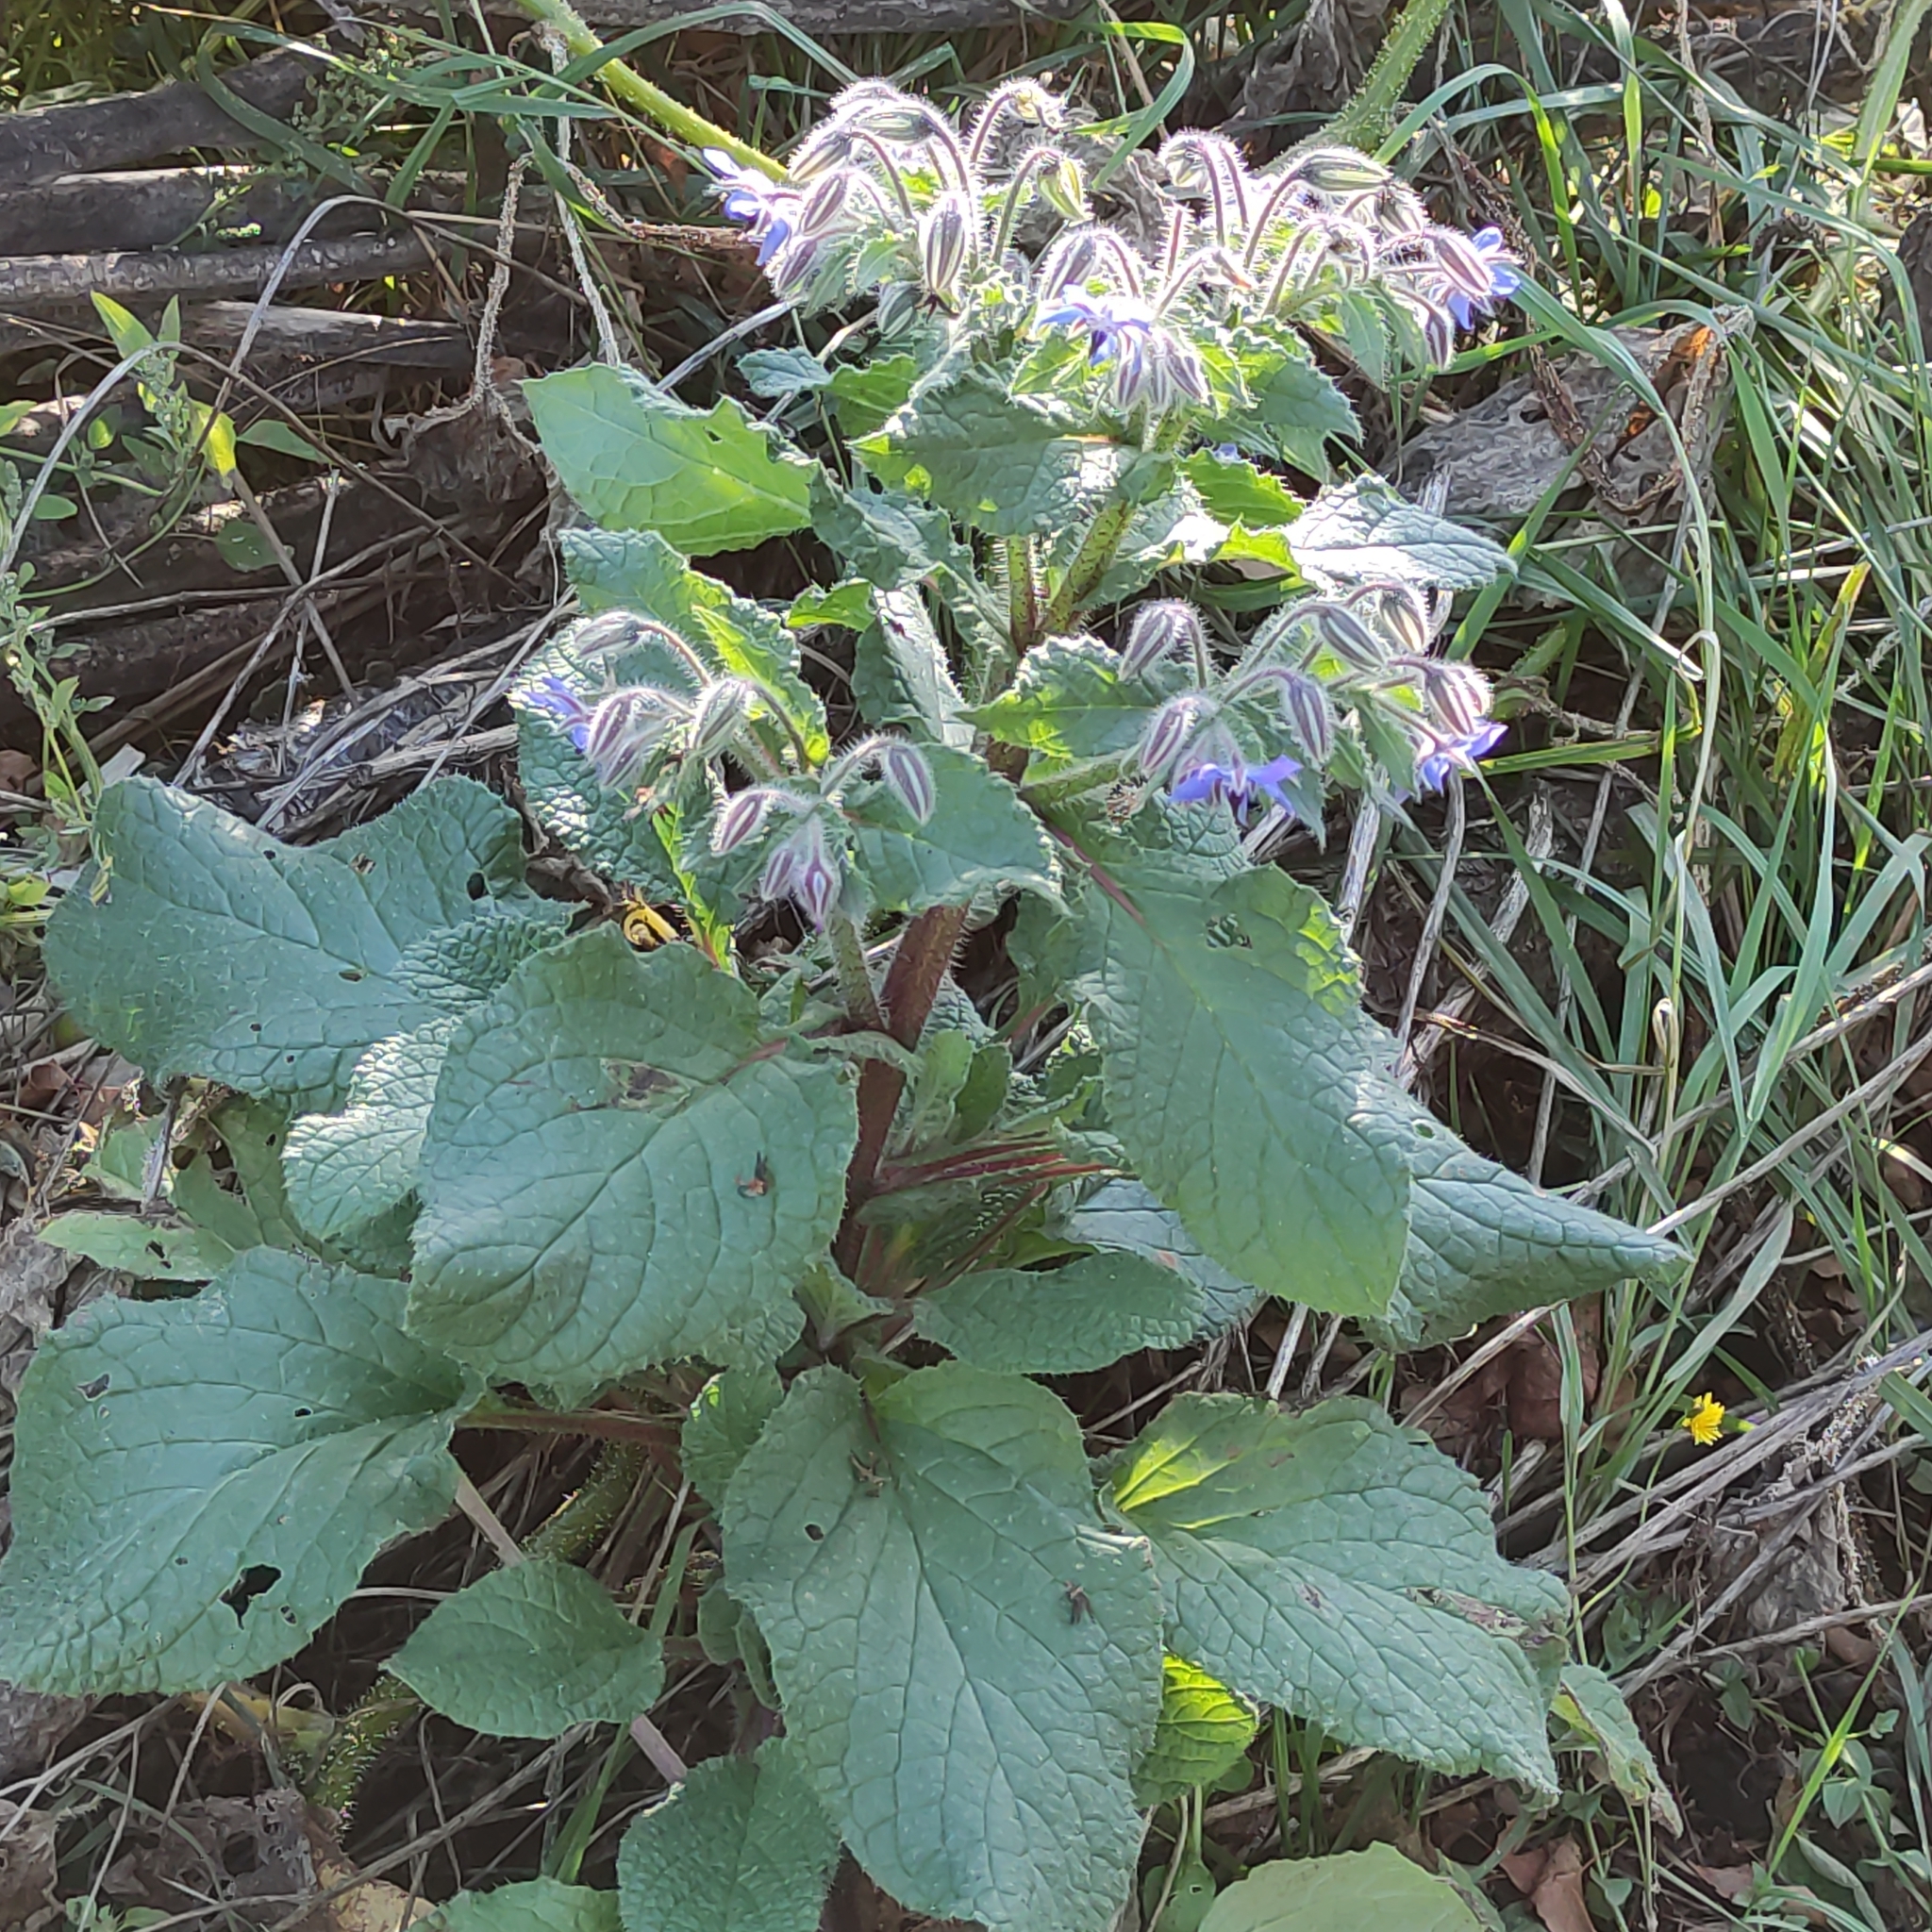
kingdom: Plantae
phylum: Tracheophyta
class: Magnoliopsida
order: Boraginales
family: Boraginaceae
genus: Borago
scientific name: Borago officinalis
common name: Borage
